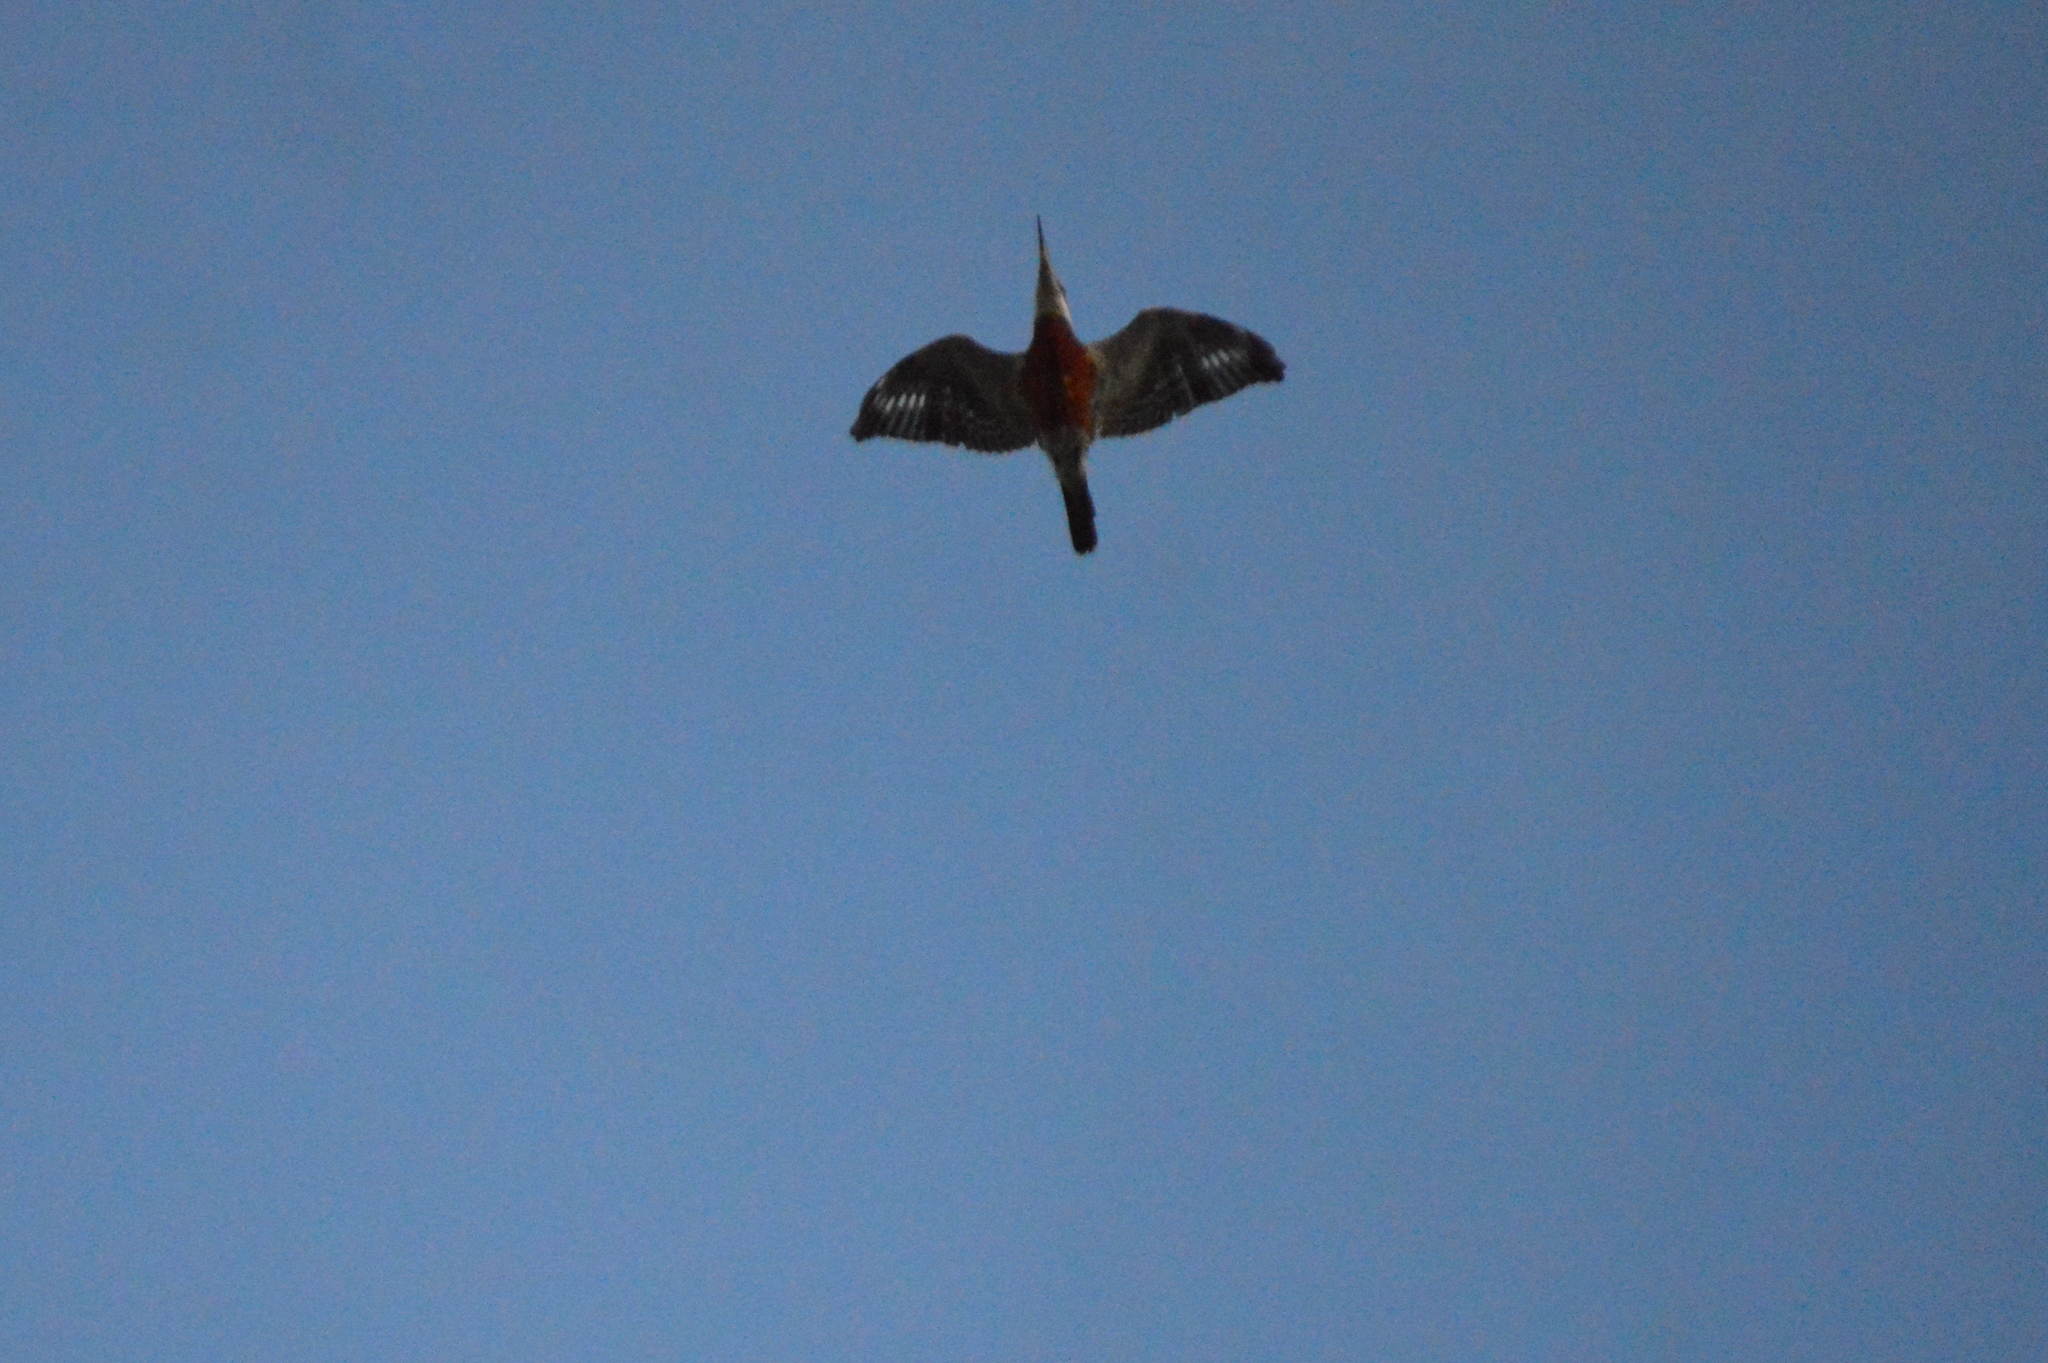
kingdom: Animalia
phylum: Chordata
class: Aves
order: Coraciiformes
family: Alcedinidae
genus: Megaceryle
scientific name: Megaceryle torquata
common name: Ringed kingfisher
